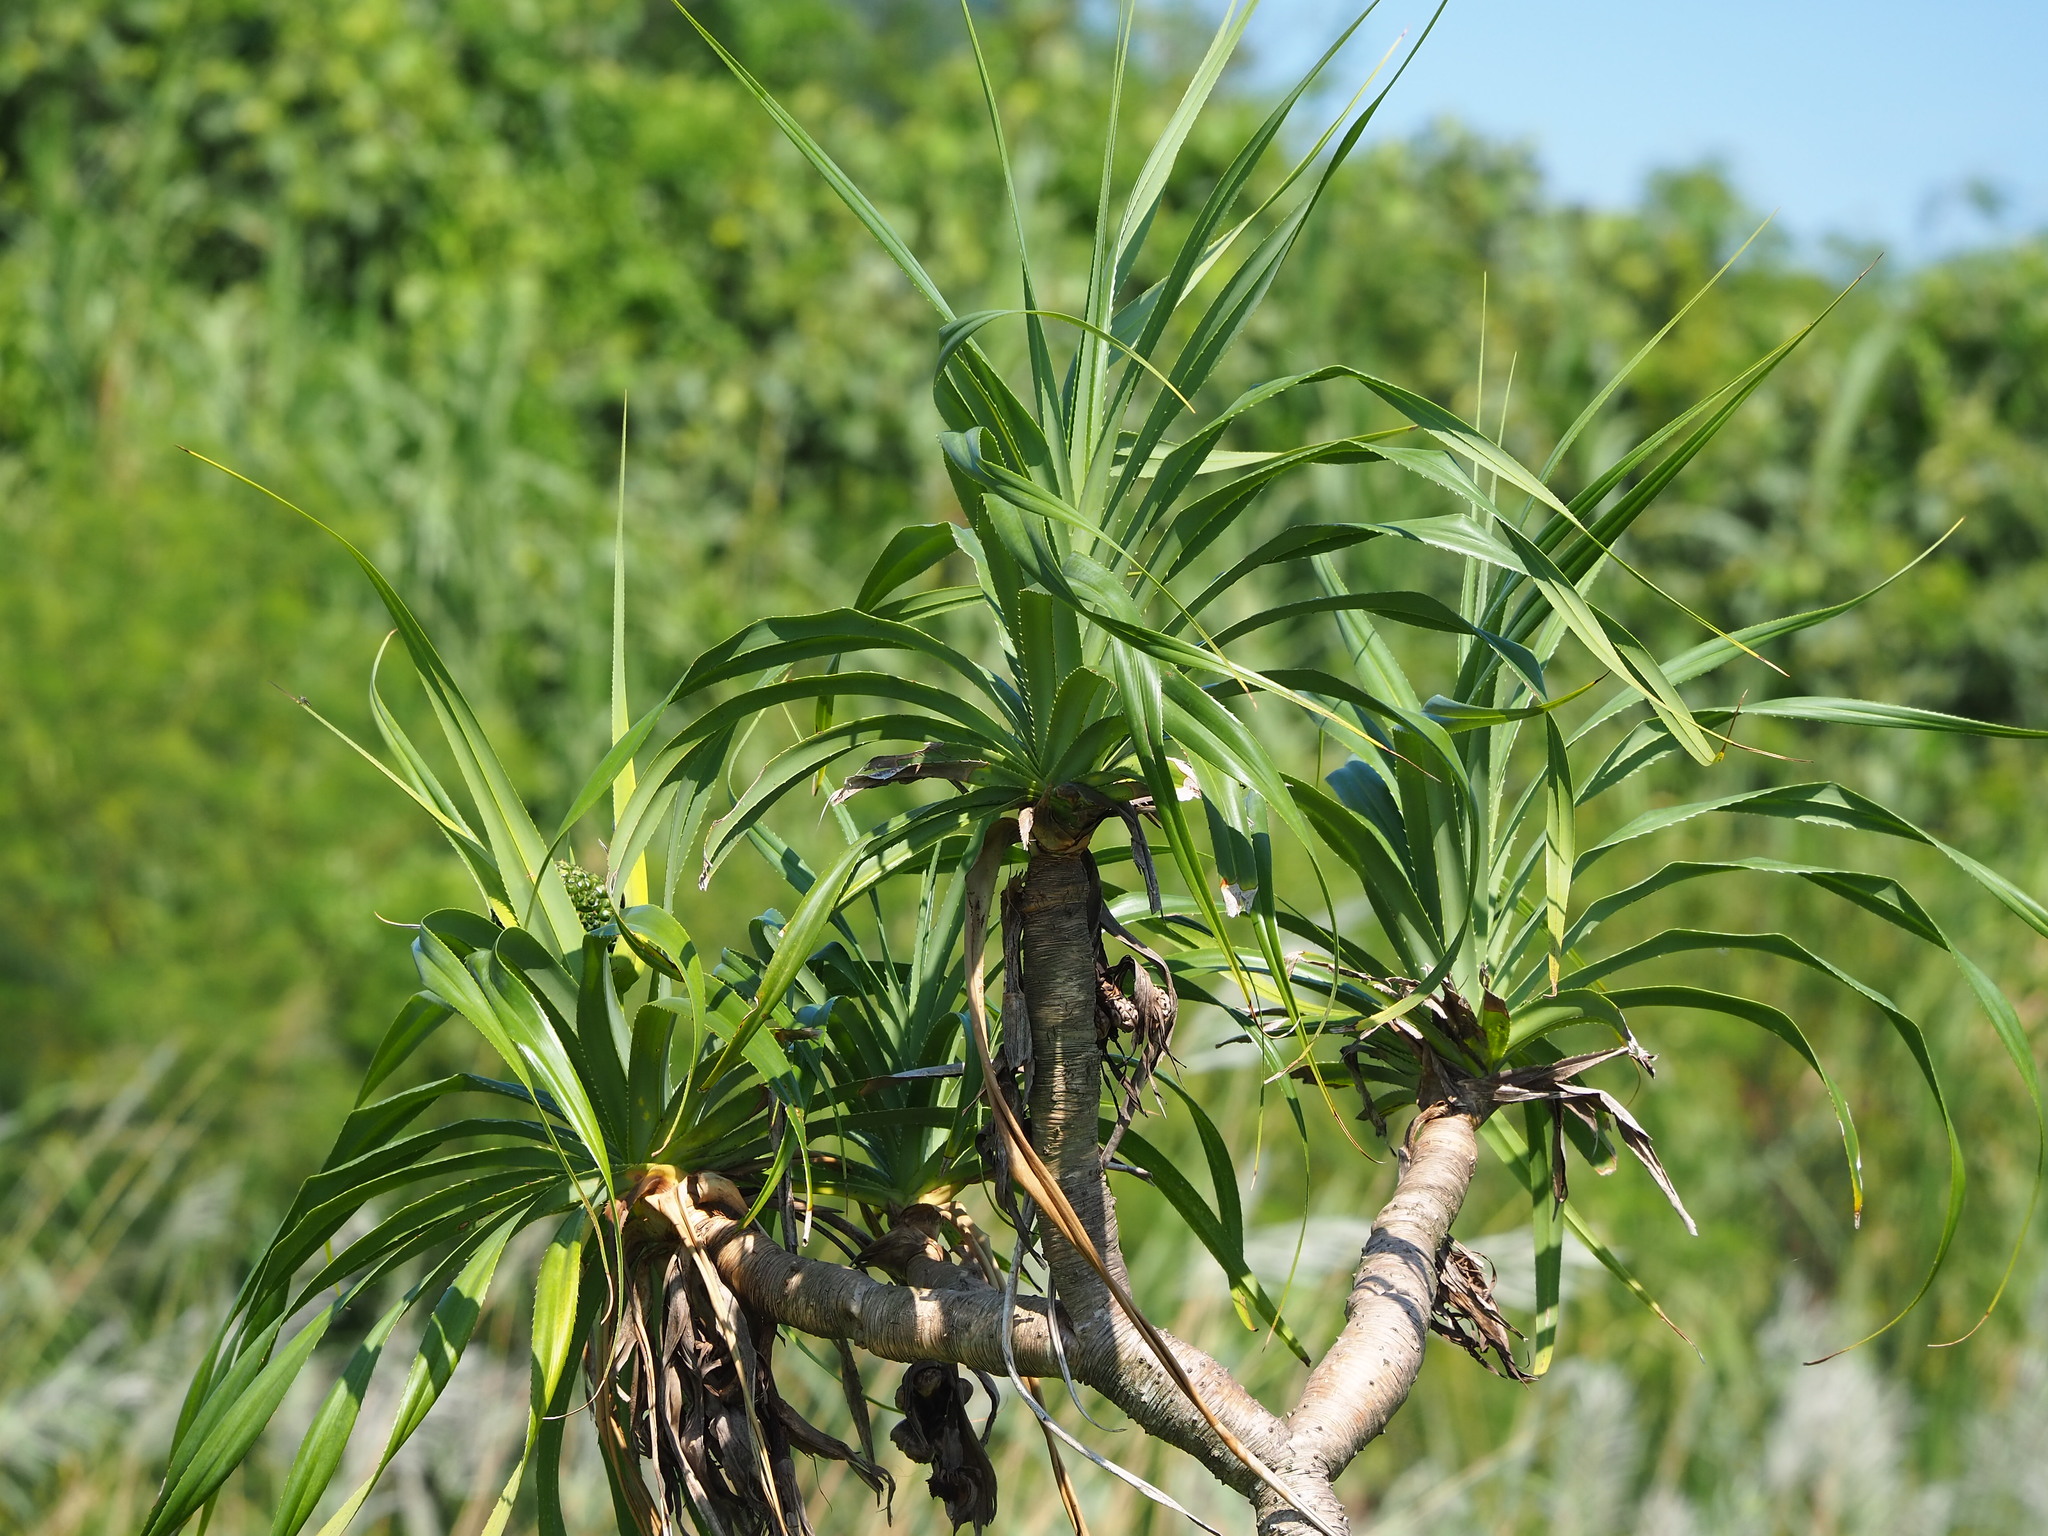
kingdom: Plantae
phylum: Tracheophyta
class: Liliopsida
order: Pandanales
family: Pandanaceae
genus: Pandanus
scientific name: Pandanus odorifer
